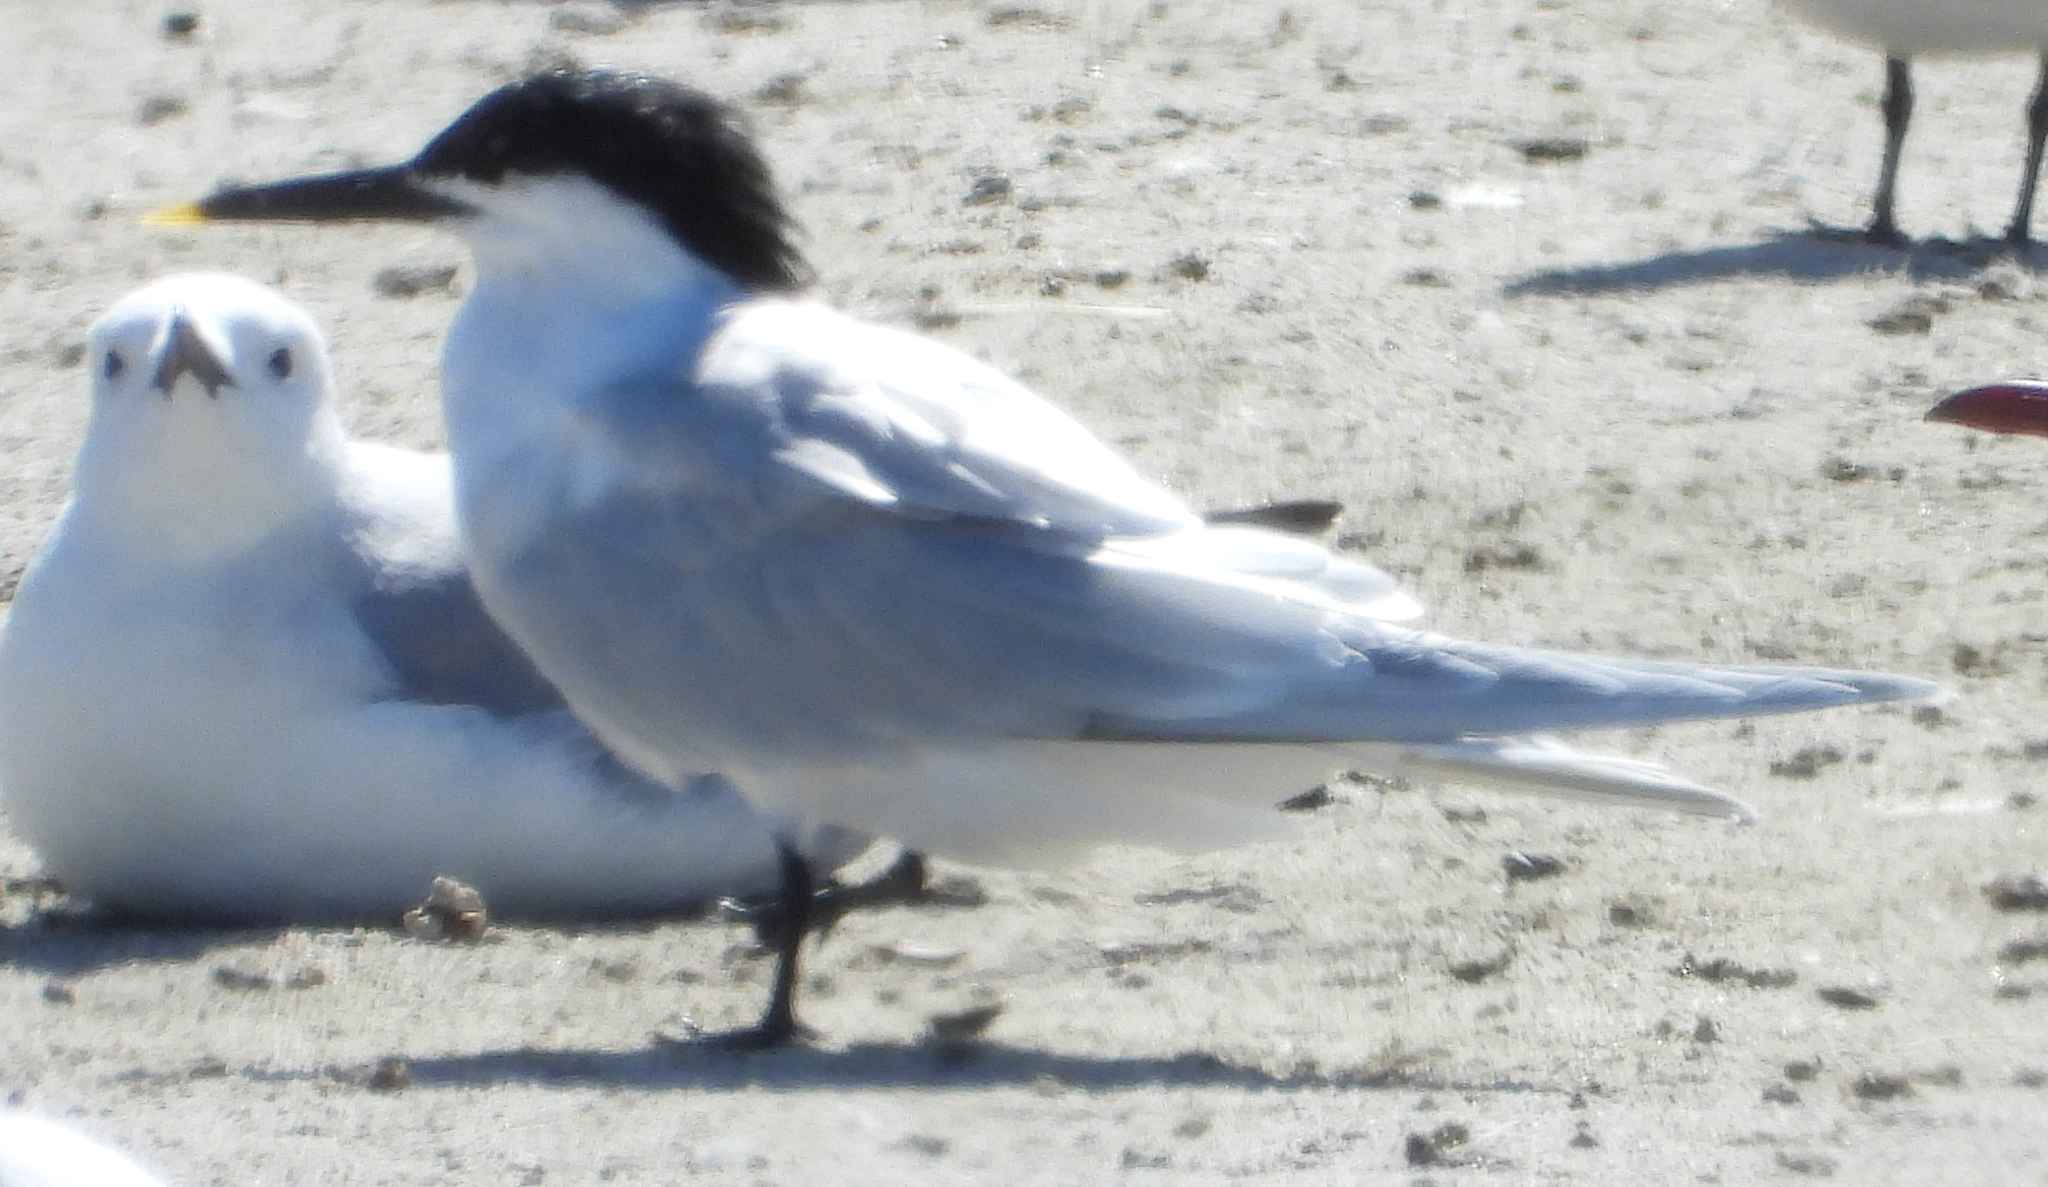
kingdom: Animalia
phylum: Chordata
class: Aves
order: Charadriiformes
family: Laridae
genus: Thalasseus
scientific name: Thalasseus sandvicensis
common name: Sandwich tern
